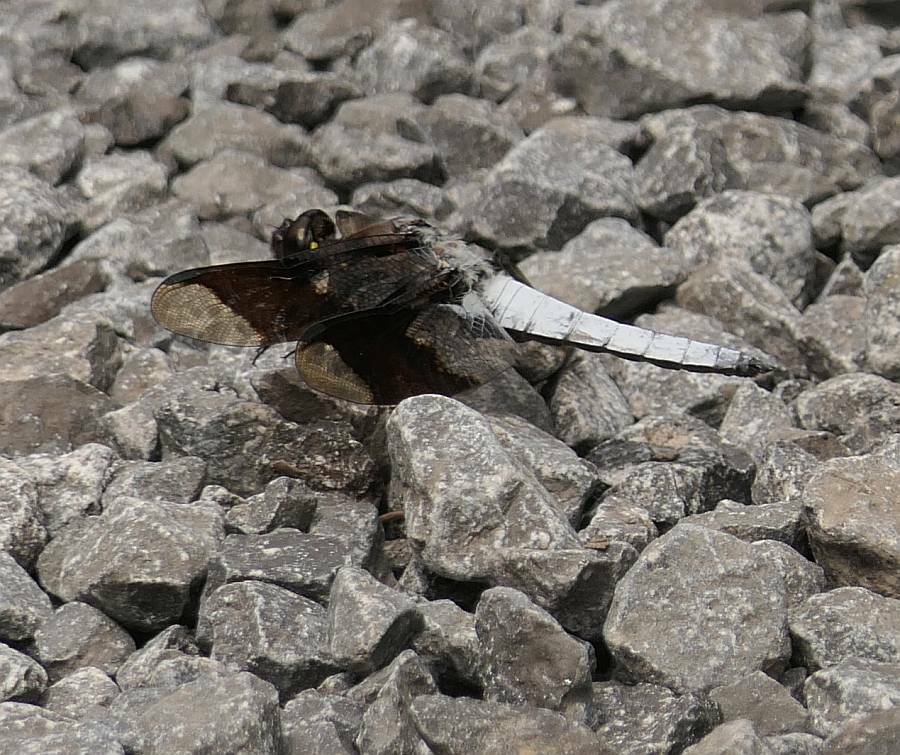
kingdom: Animalia
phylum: Arthropoda
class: Insecta
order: Odonata
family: Libellulidae
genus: Plathemis
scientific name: Plathemis lydia
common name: Common whitetail
